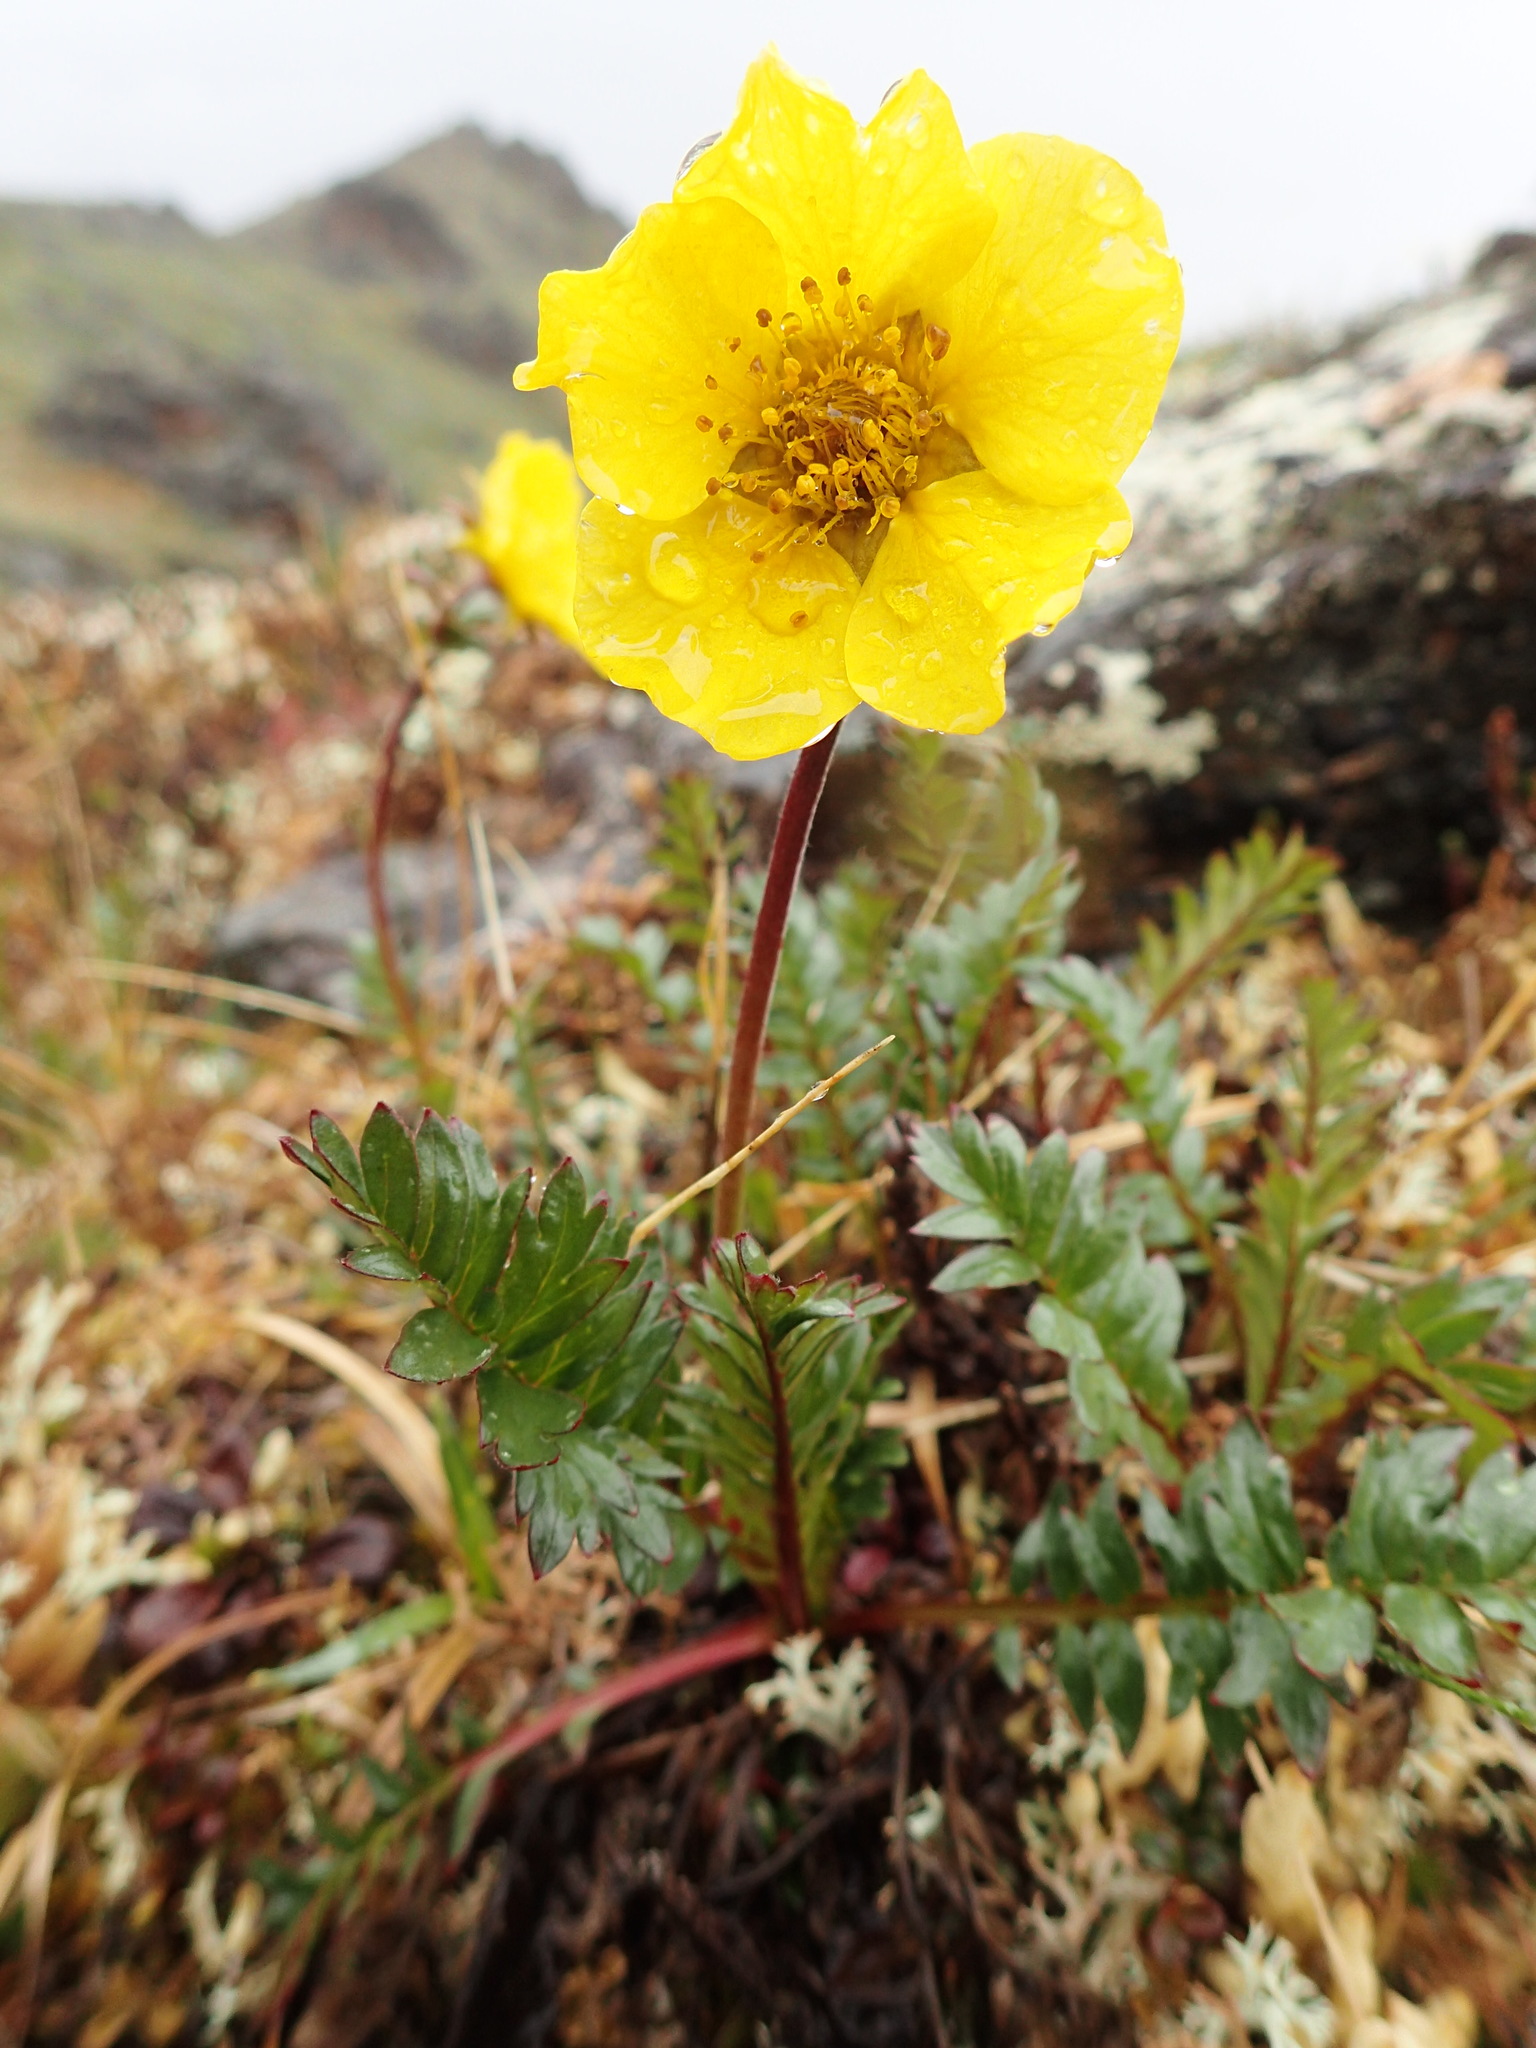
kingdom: Plantae
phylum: Tracheophyta
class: Magnoliopsida
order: Rosales
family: Rosaceae
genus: Geum
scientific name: Geum rossii
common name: Alpine avens
